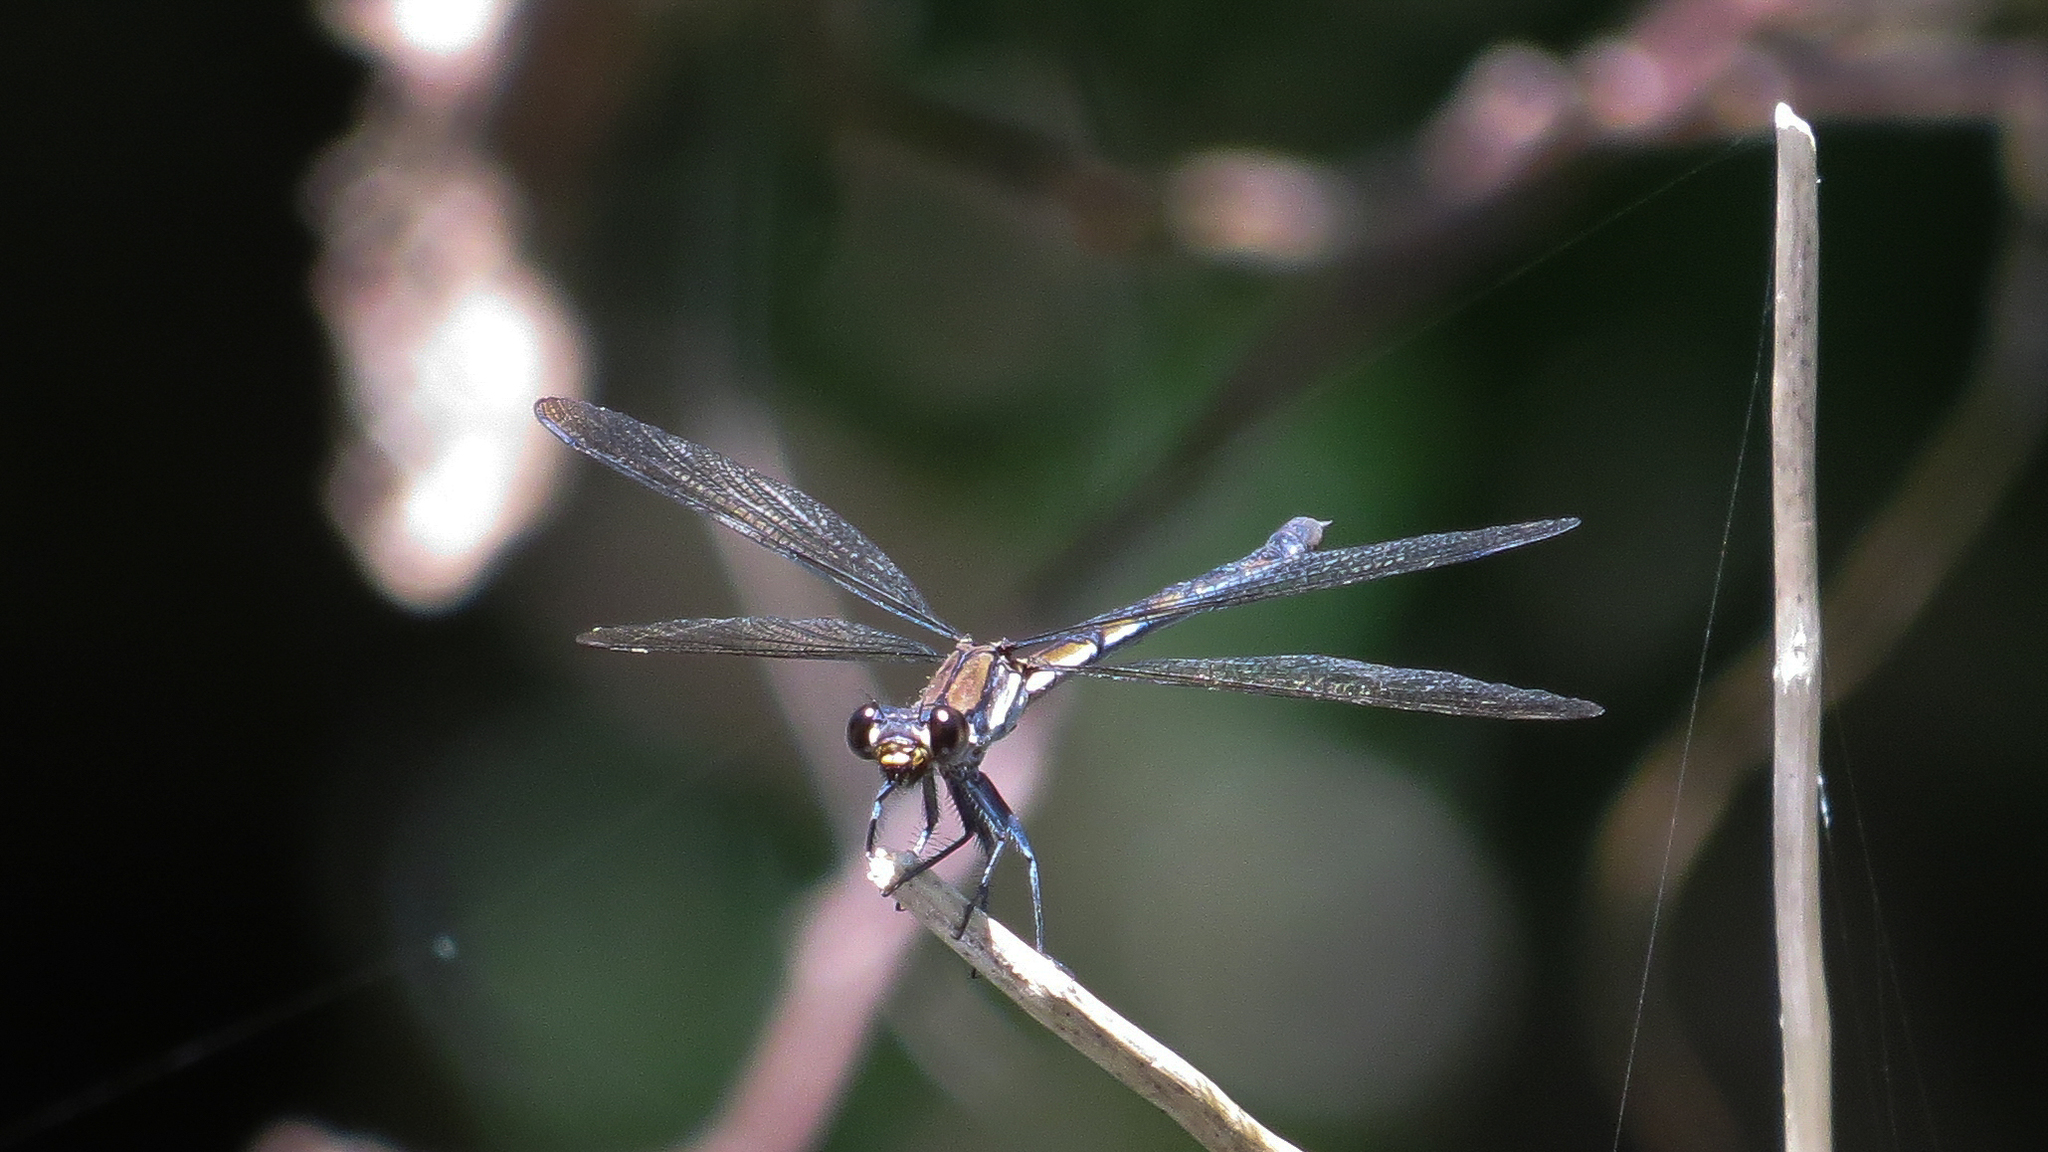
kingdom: Animalia
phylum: Arthropoda
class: Insecta
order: Odonata
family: Lestoideidae
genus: Diphlebia
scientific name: Diphlebia coerulescens
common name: Sapphire rockmaster
